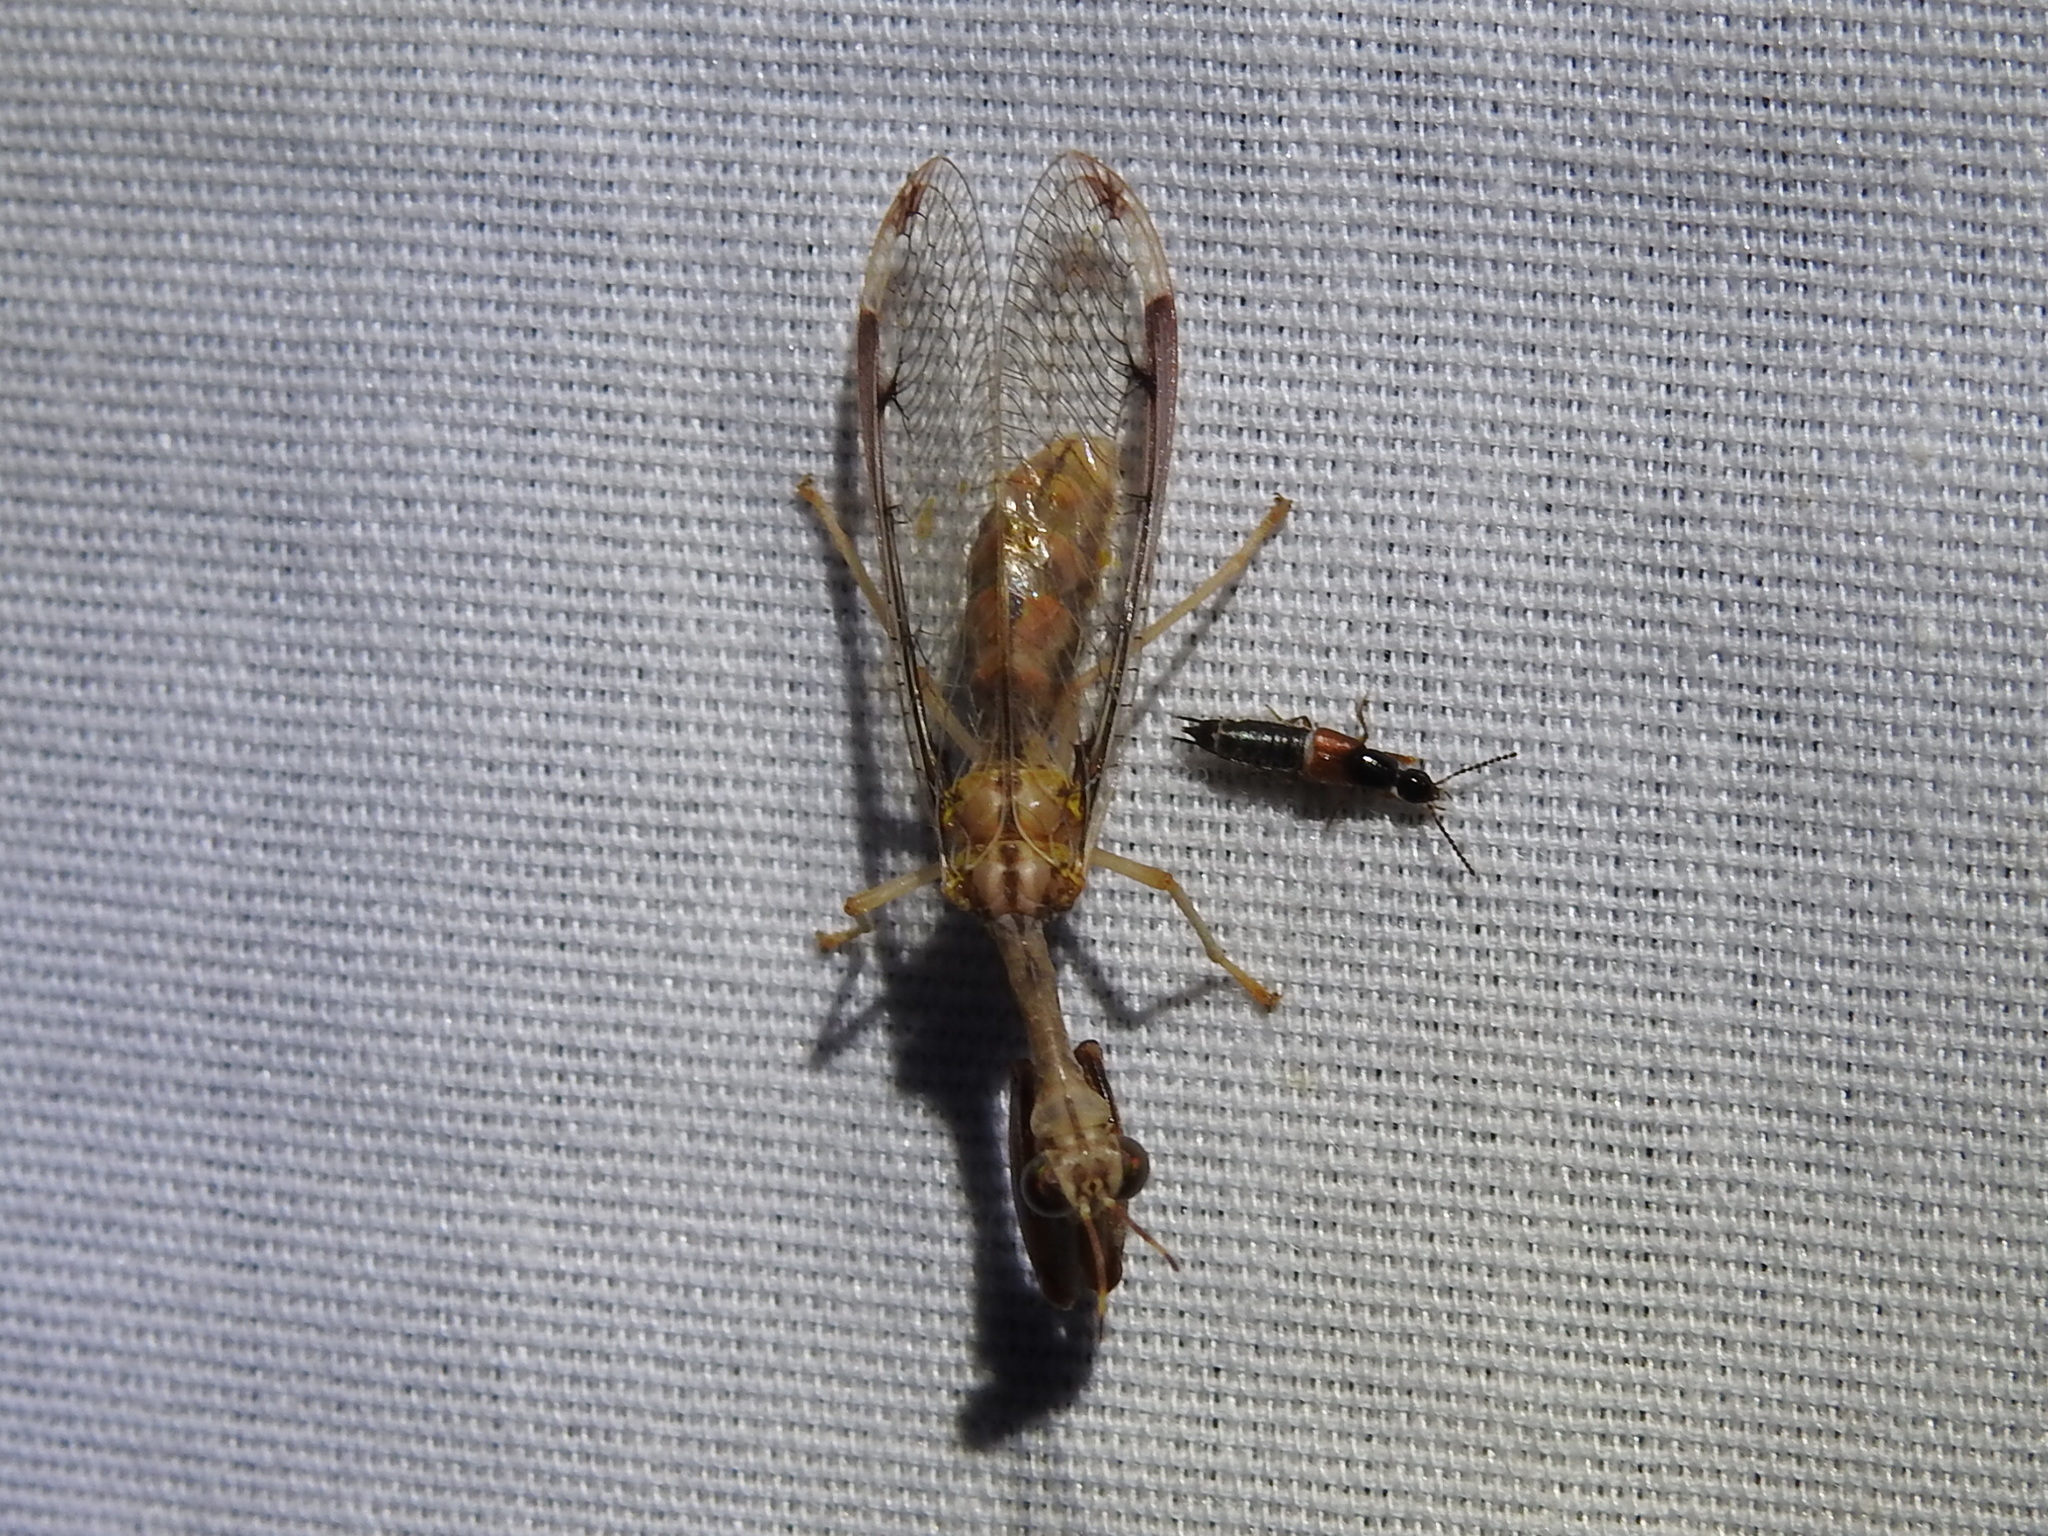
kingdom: Animalia
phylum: Arthropoda
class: Insecta
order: Neuroptera
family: Mantispidae
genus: Dicromantispa
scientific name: Dicromantispa interrupta
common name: Four-spotted mantidfly
